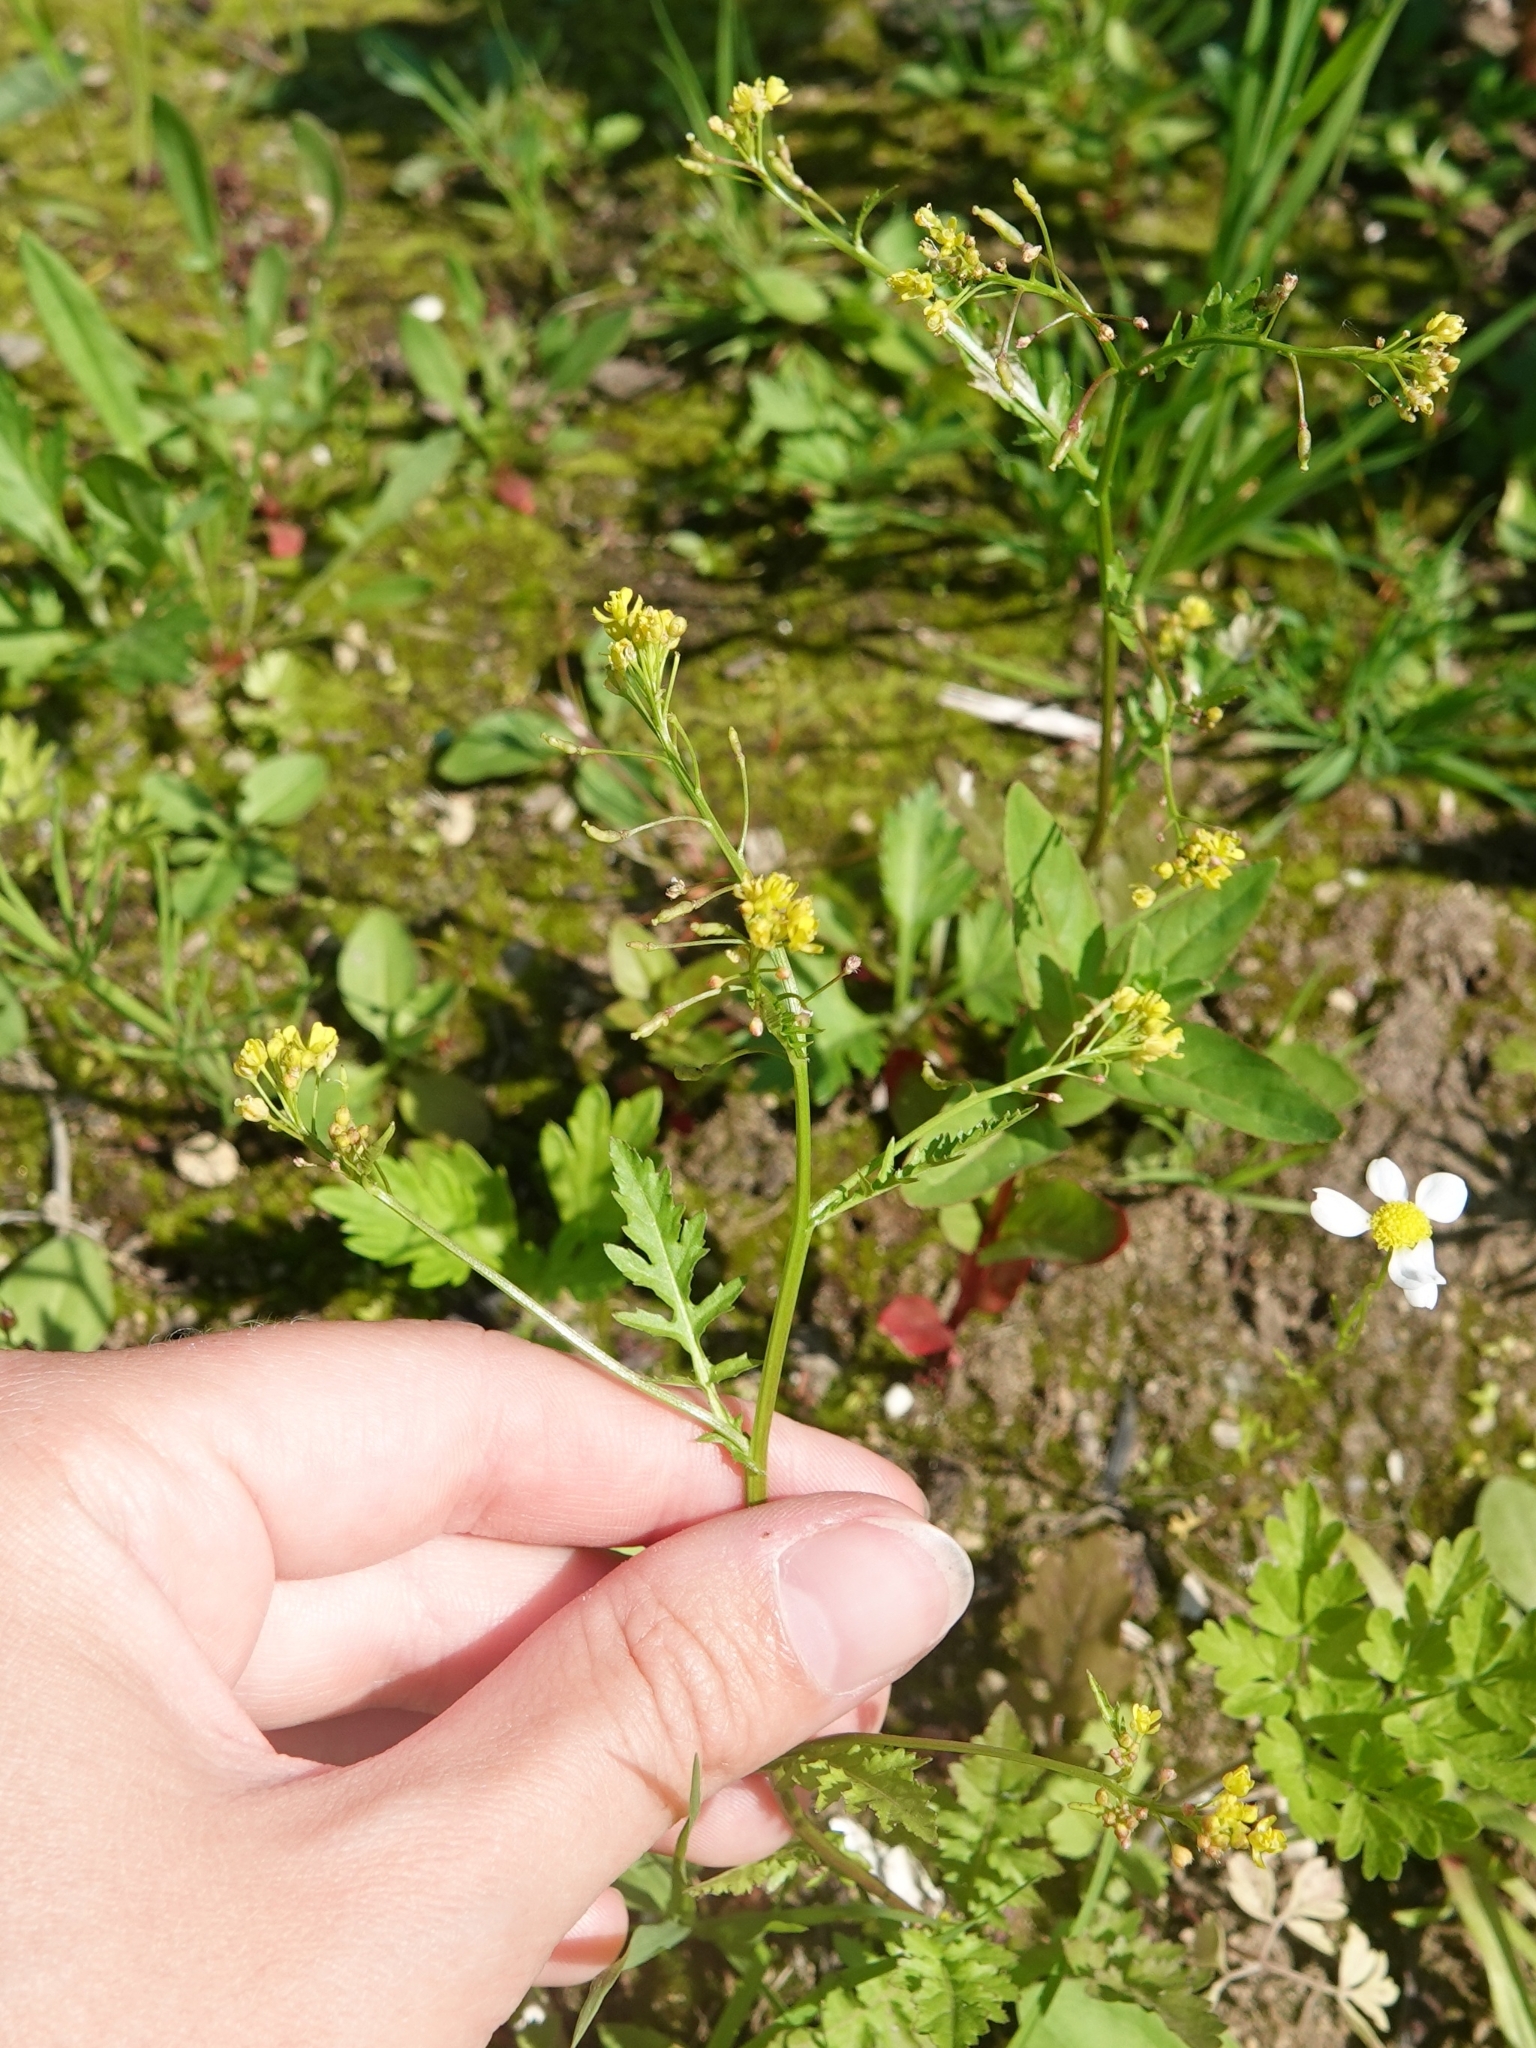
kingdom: Plantae
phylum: Tracheophyta
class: Magnoliopsida
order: Brassicales
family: Brassicaceae
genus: Rorippa
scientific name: Rorippa palustris
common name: Marsh yellow-cress
